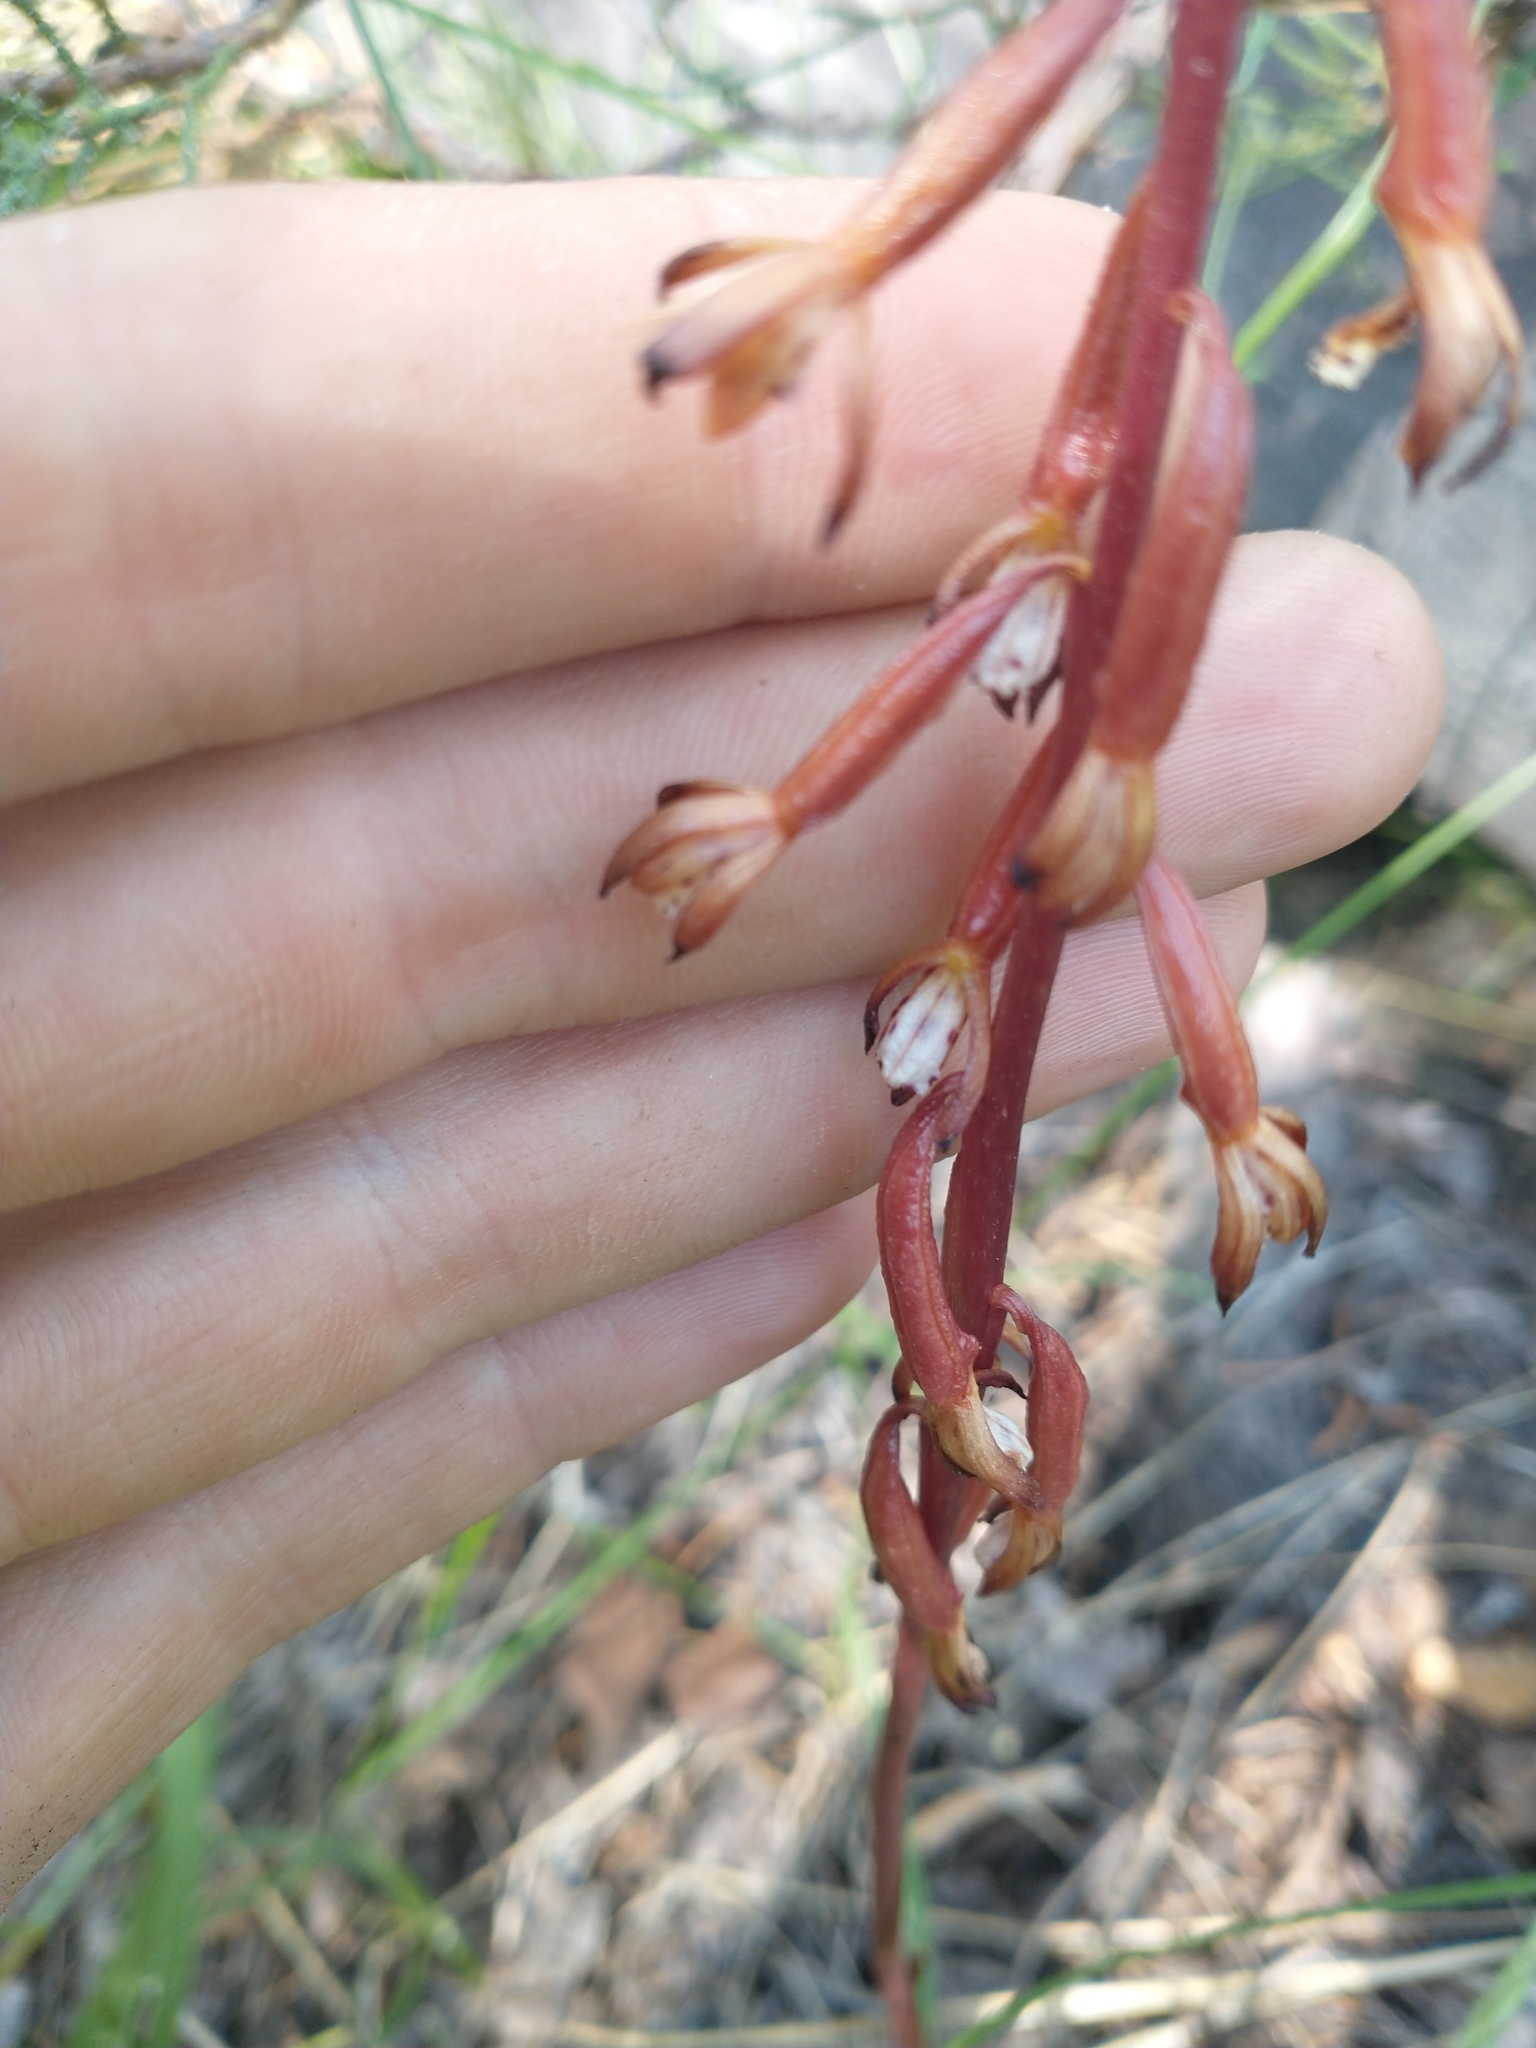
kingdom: Plantae
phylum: Tracheophyta
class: Liliopsida
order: Asparagales
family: Orchidaceae
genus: Corallorhiza
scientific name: Corallorhiza maculata
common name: Spotted coralroot
